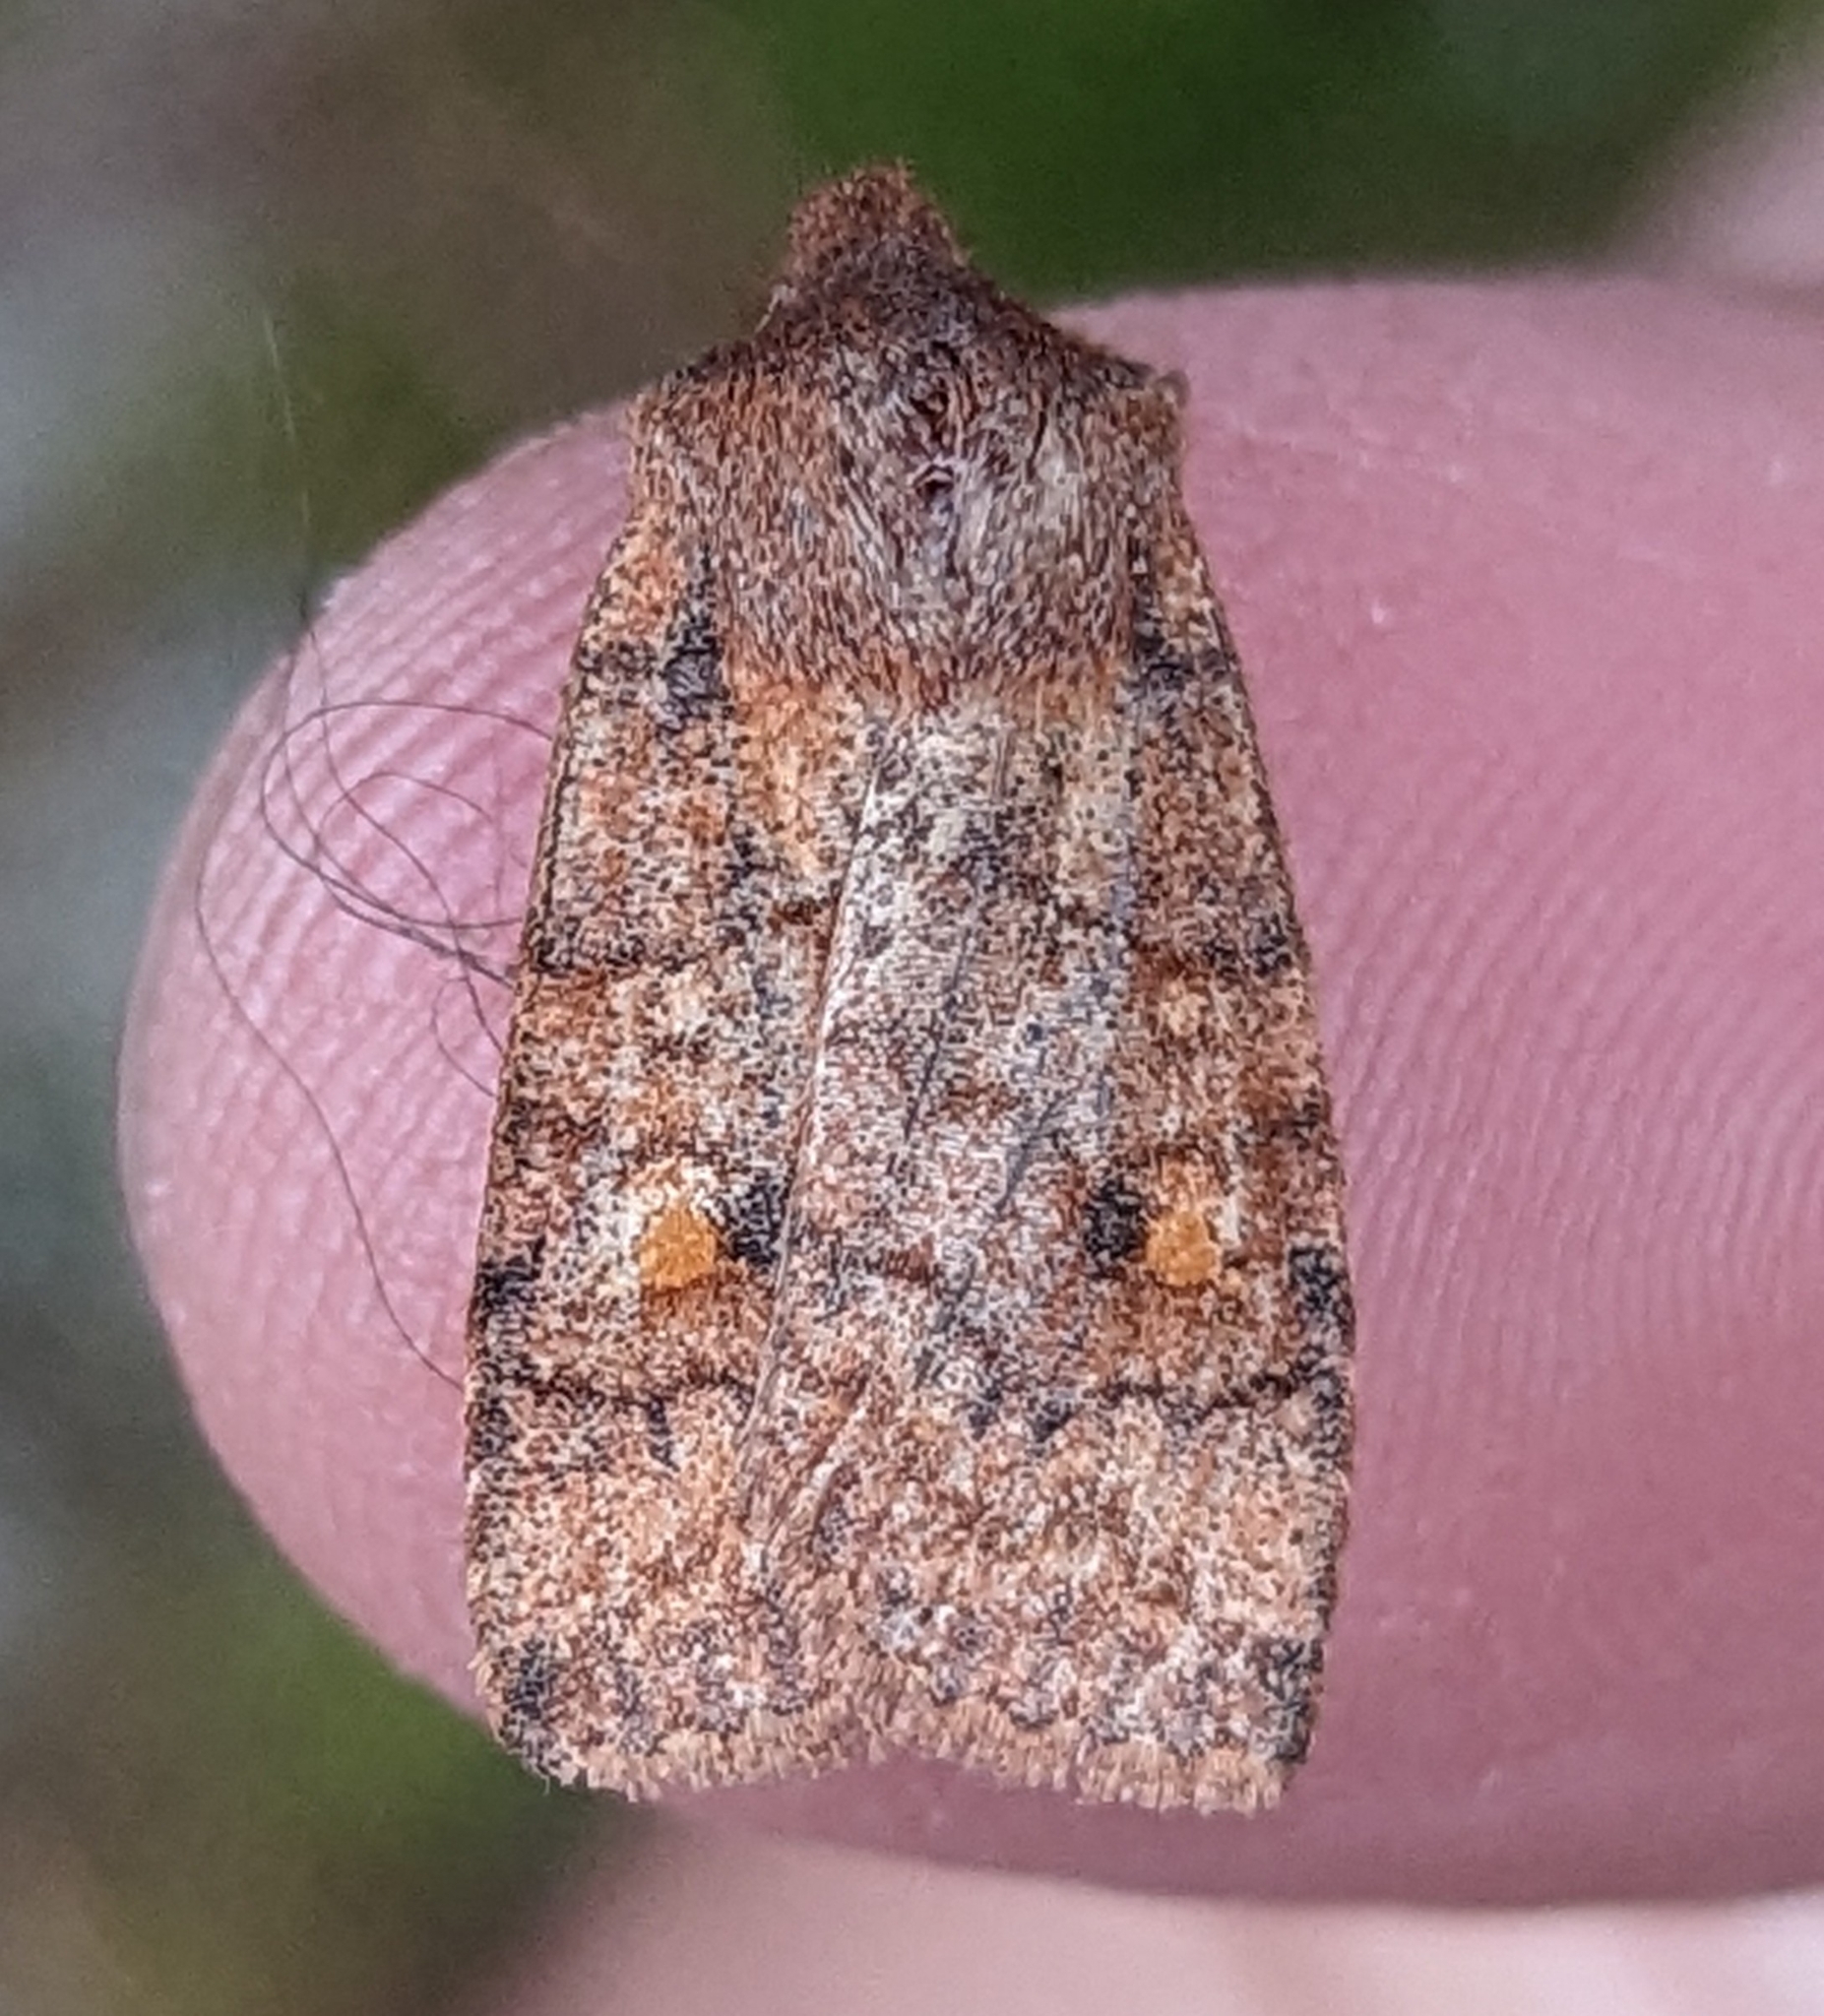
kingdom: Animalia
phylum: Arthropoda
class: Insecta
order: Lepidoptera
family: Noctuidae
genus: Eupsilia
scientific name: Eupsilia tristigmata
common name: Three-spotted sallow
